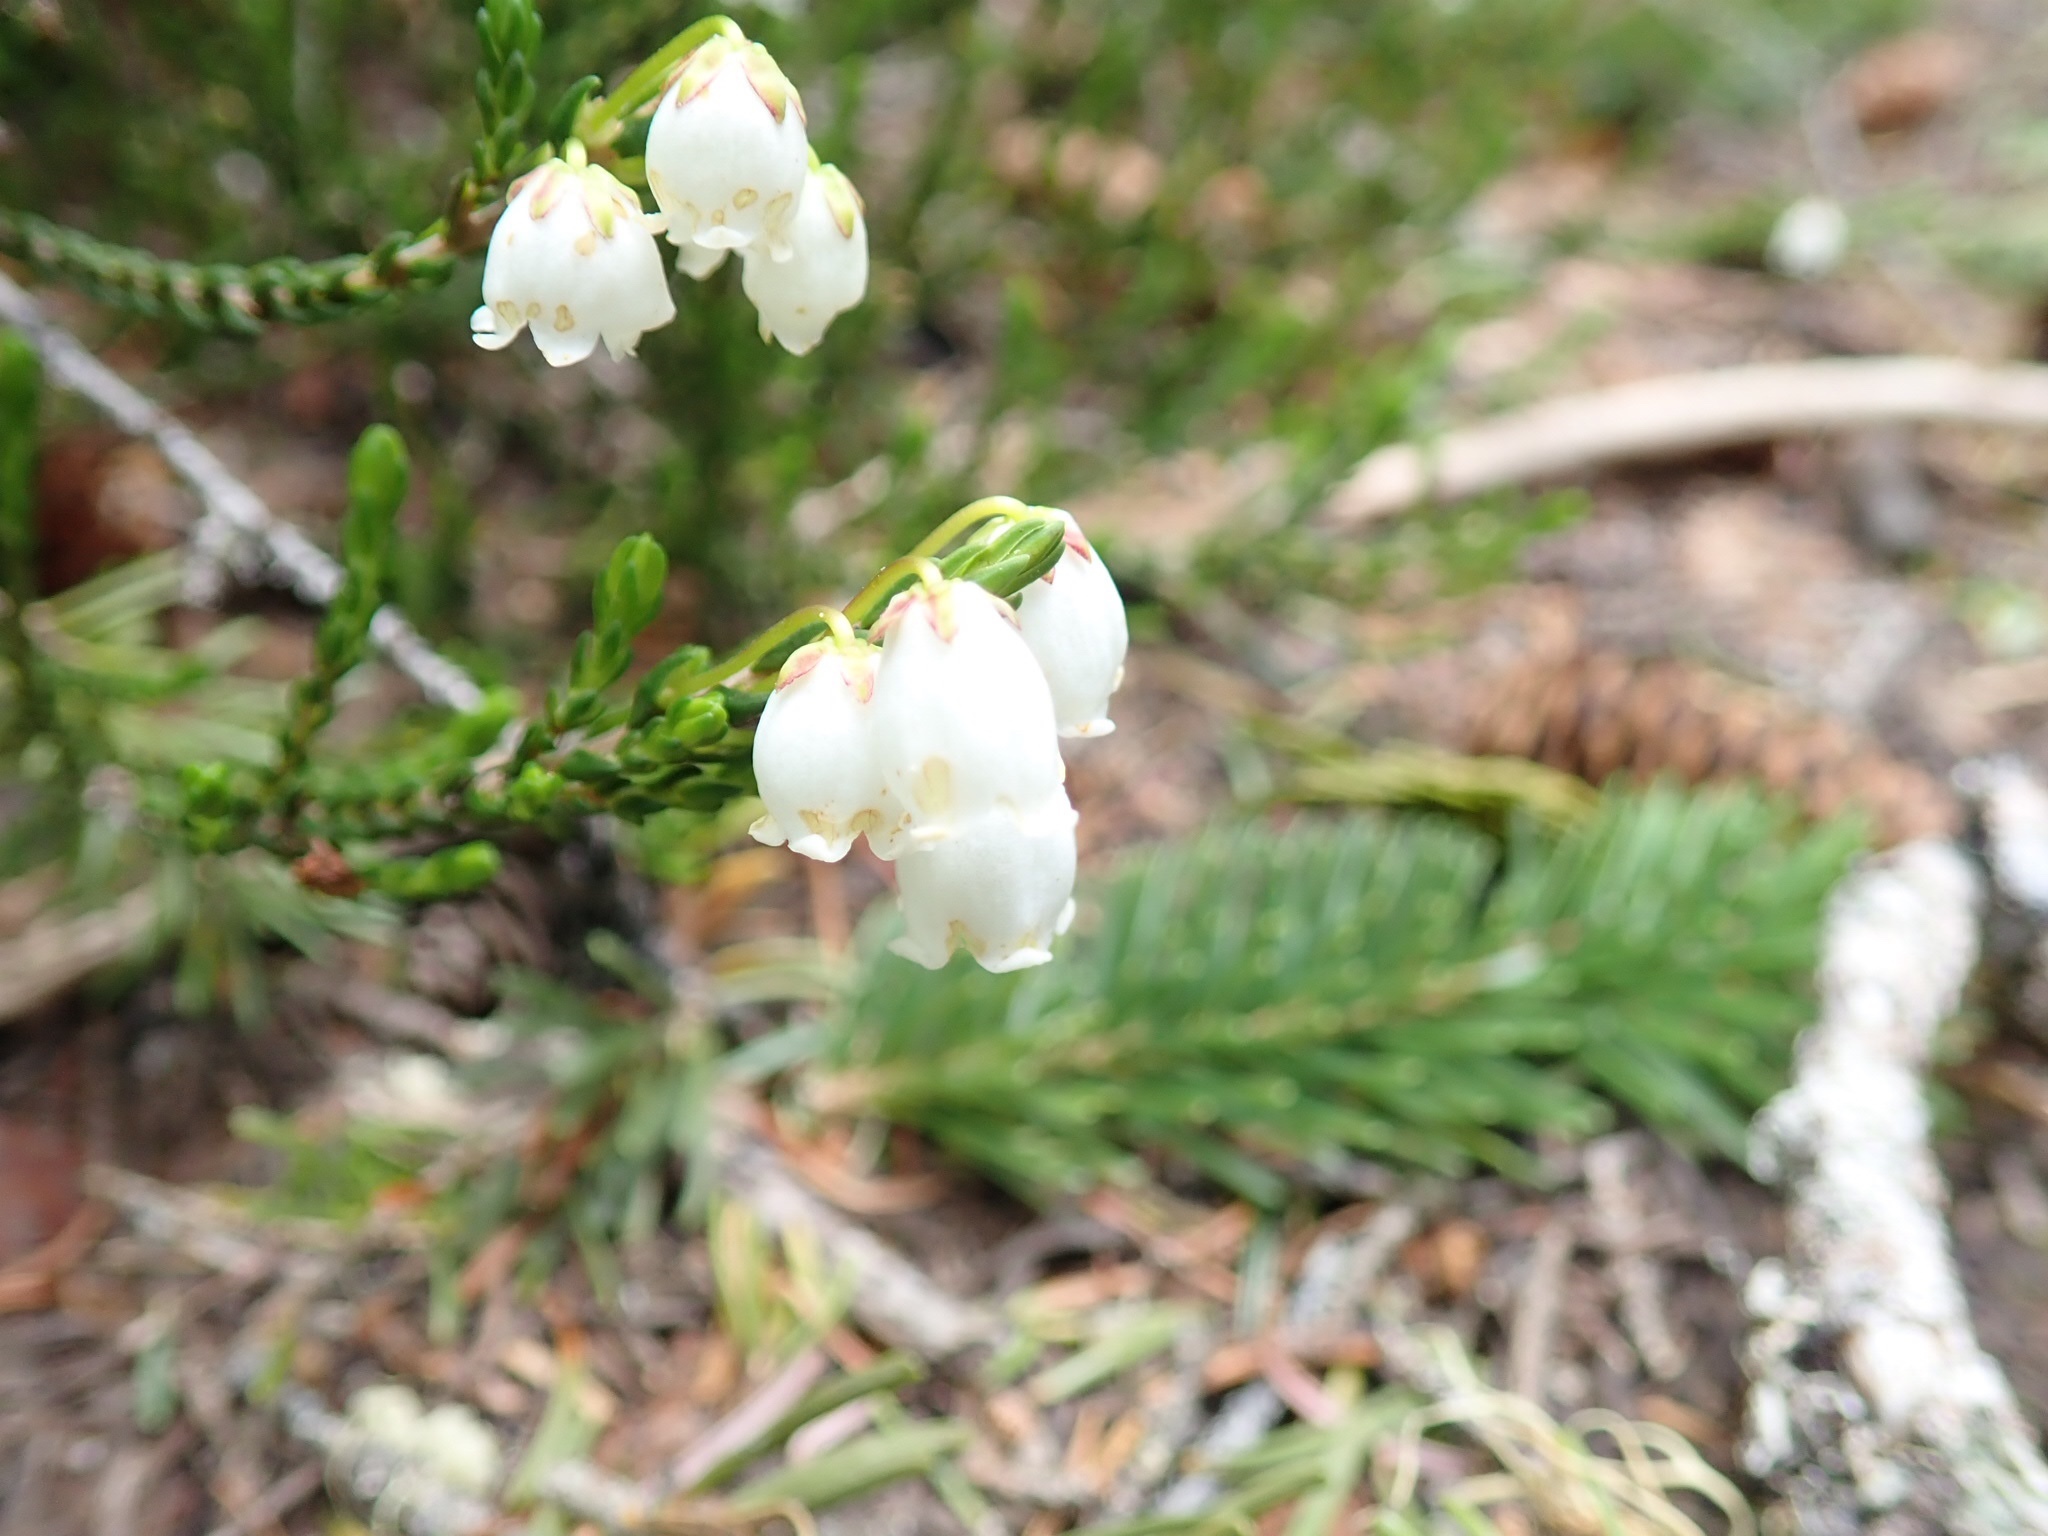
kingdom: Plantae
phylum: Tracheophyta
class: Magnoliopsida
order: Ericales
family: Ericaceae
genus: Cassiope
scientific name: Cassiope mertensiana
